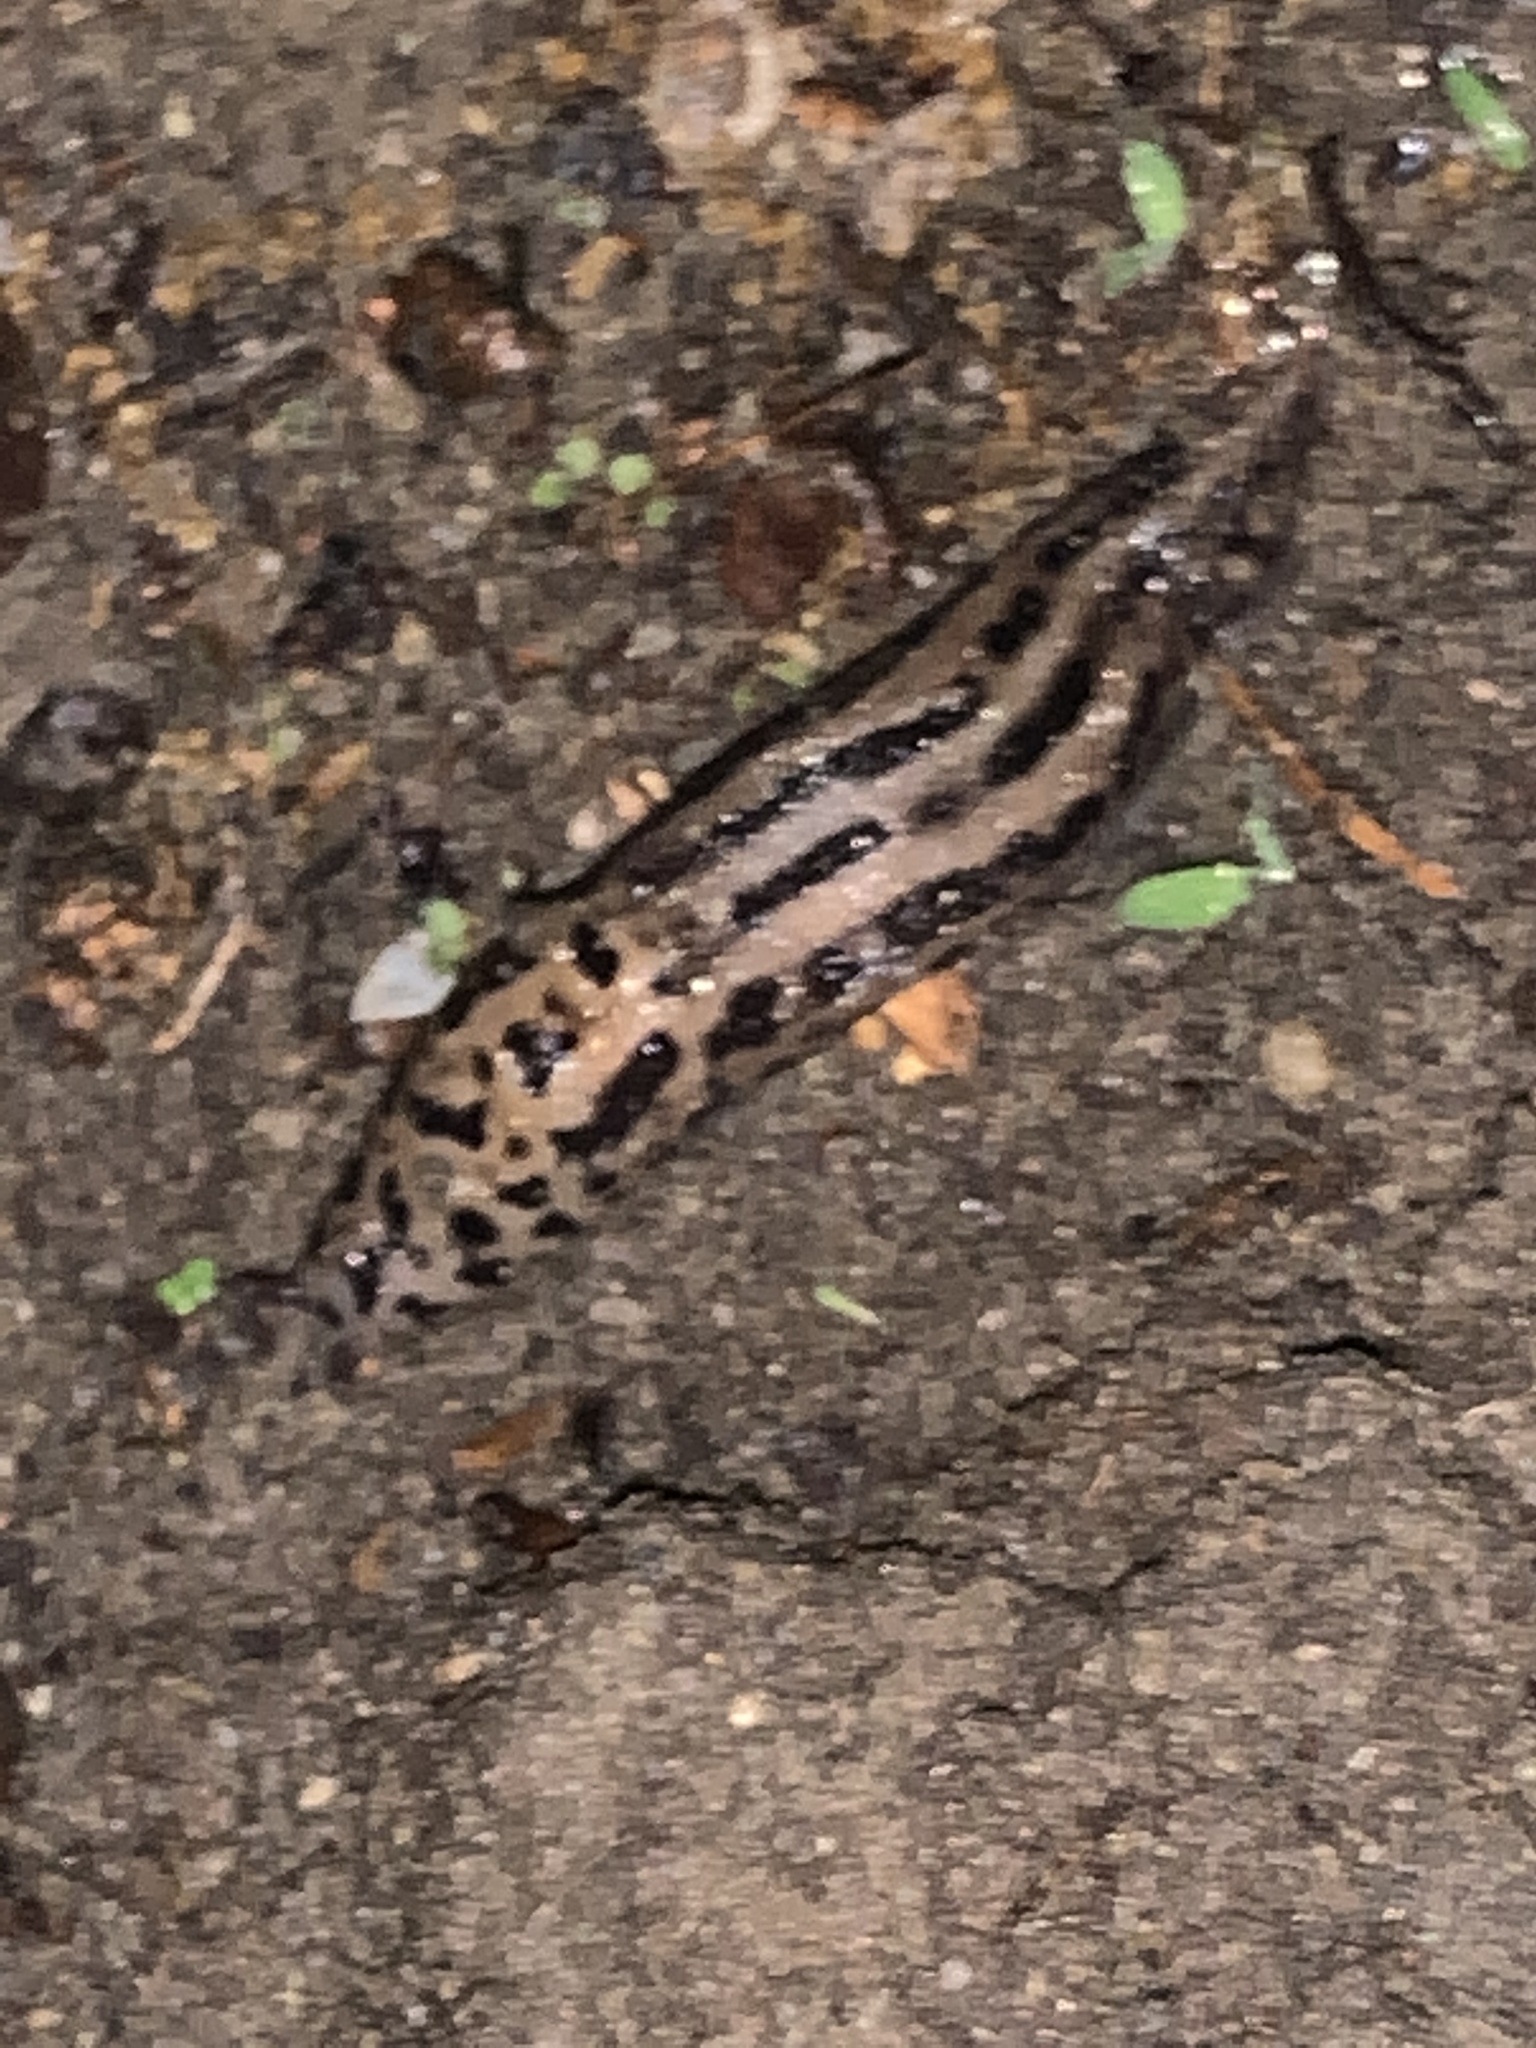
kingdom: Animalia
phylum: Mollusca
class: Gastropoda
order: Stylommatophora
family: Limacidae
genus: Limax
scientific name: Limax maximus
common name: Great grey slug
